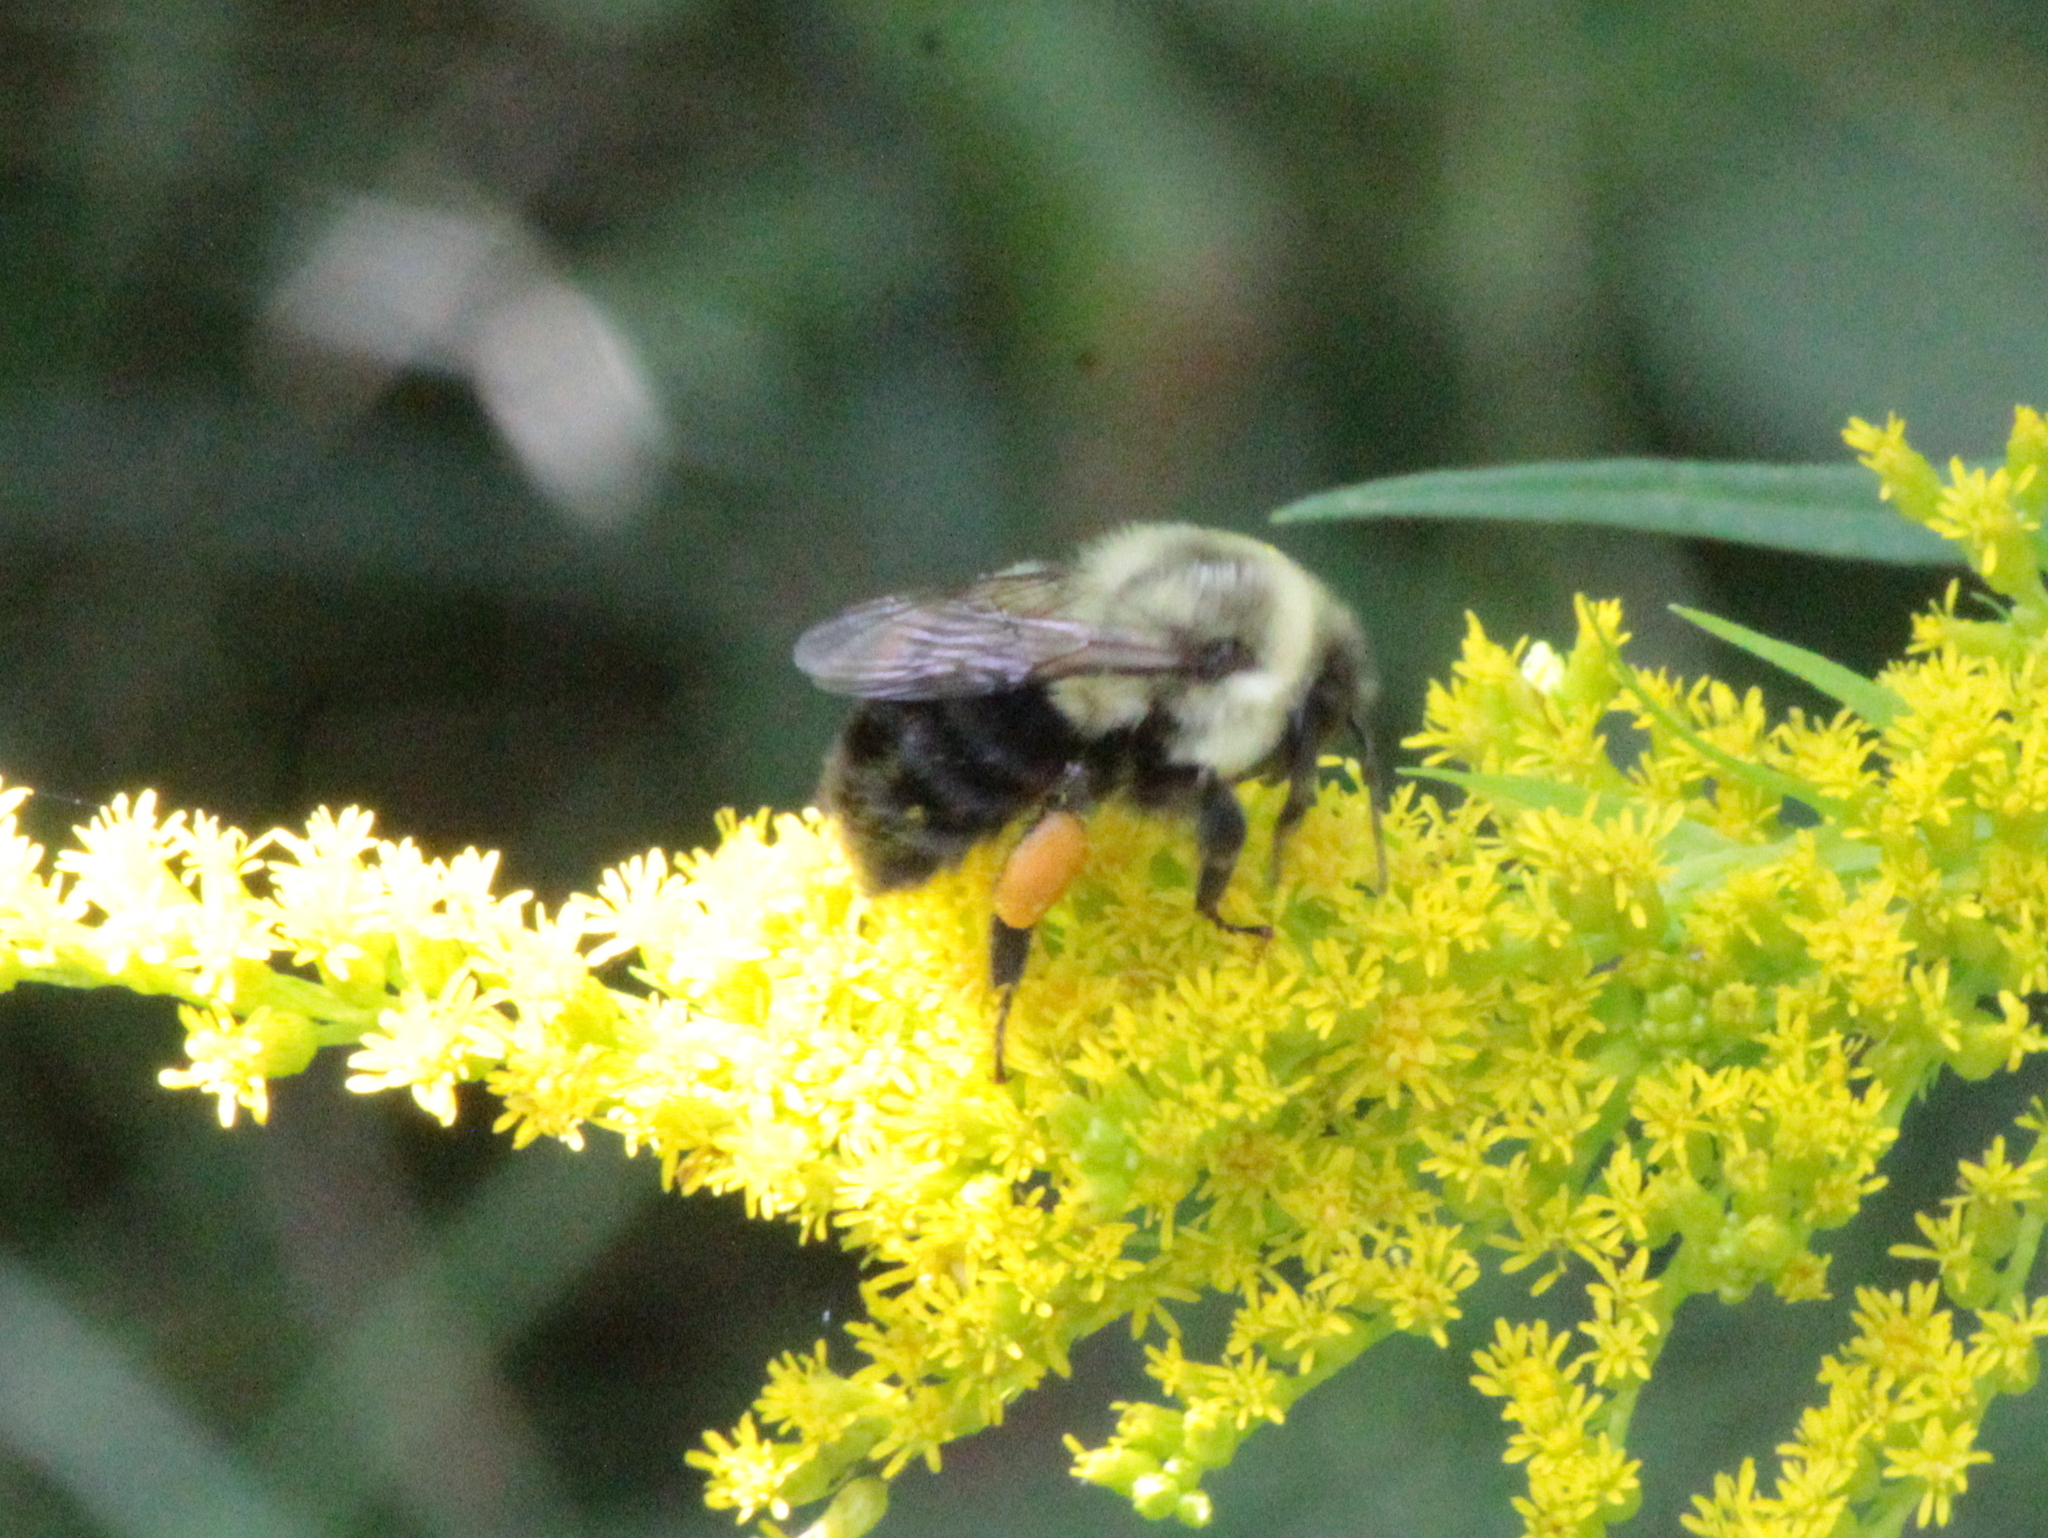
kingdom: Animalia
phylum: Arthropoda
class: Insecta
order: Hymenoptera
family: Apidae
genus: Bombus
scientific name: Bombus impatiens
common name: Common eastern bumble bee
